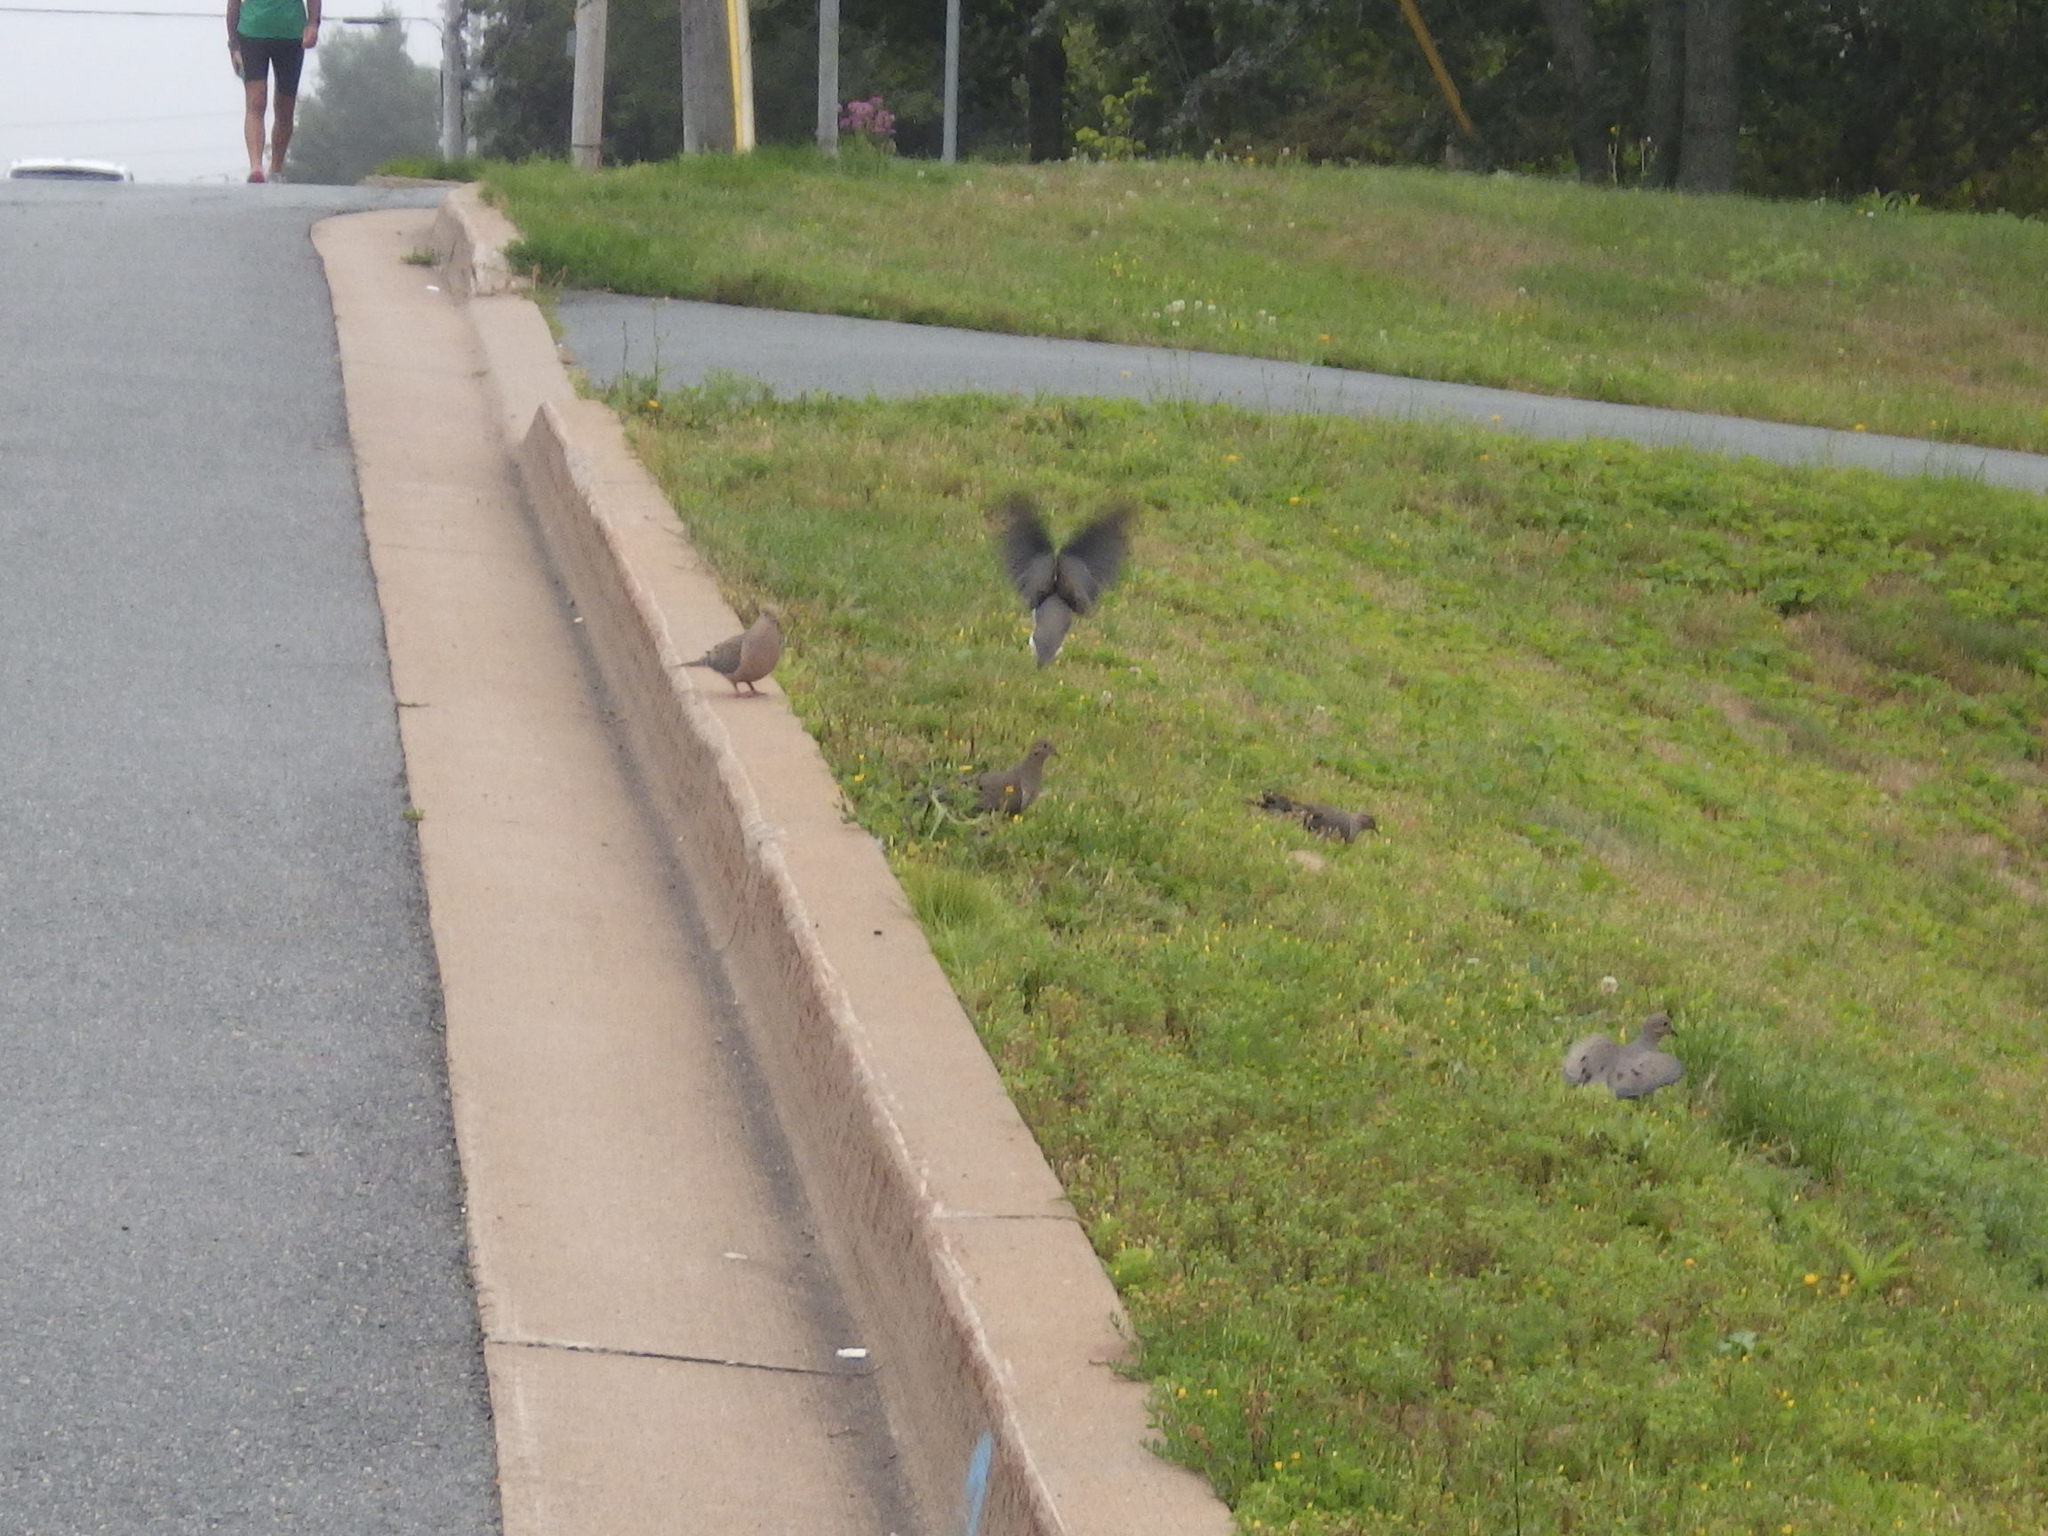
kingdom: Animalia
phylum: Chordata
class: Aves
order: Columbiformes
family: Columbidae
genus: Zenaida
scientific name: Zenaida macroura
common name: Mourning dove
